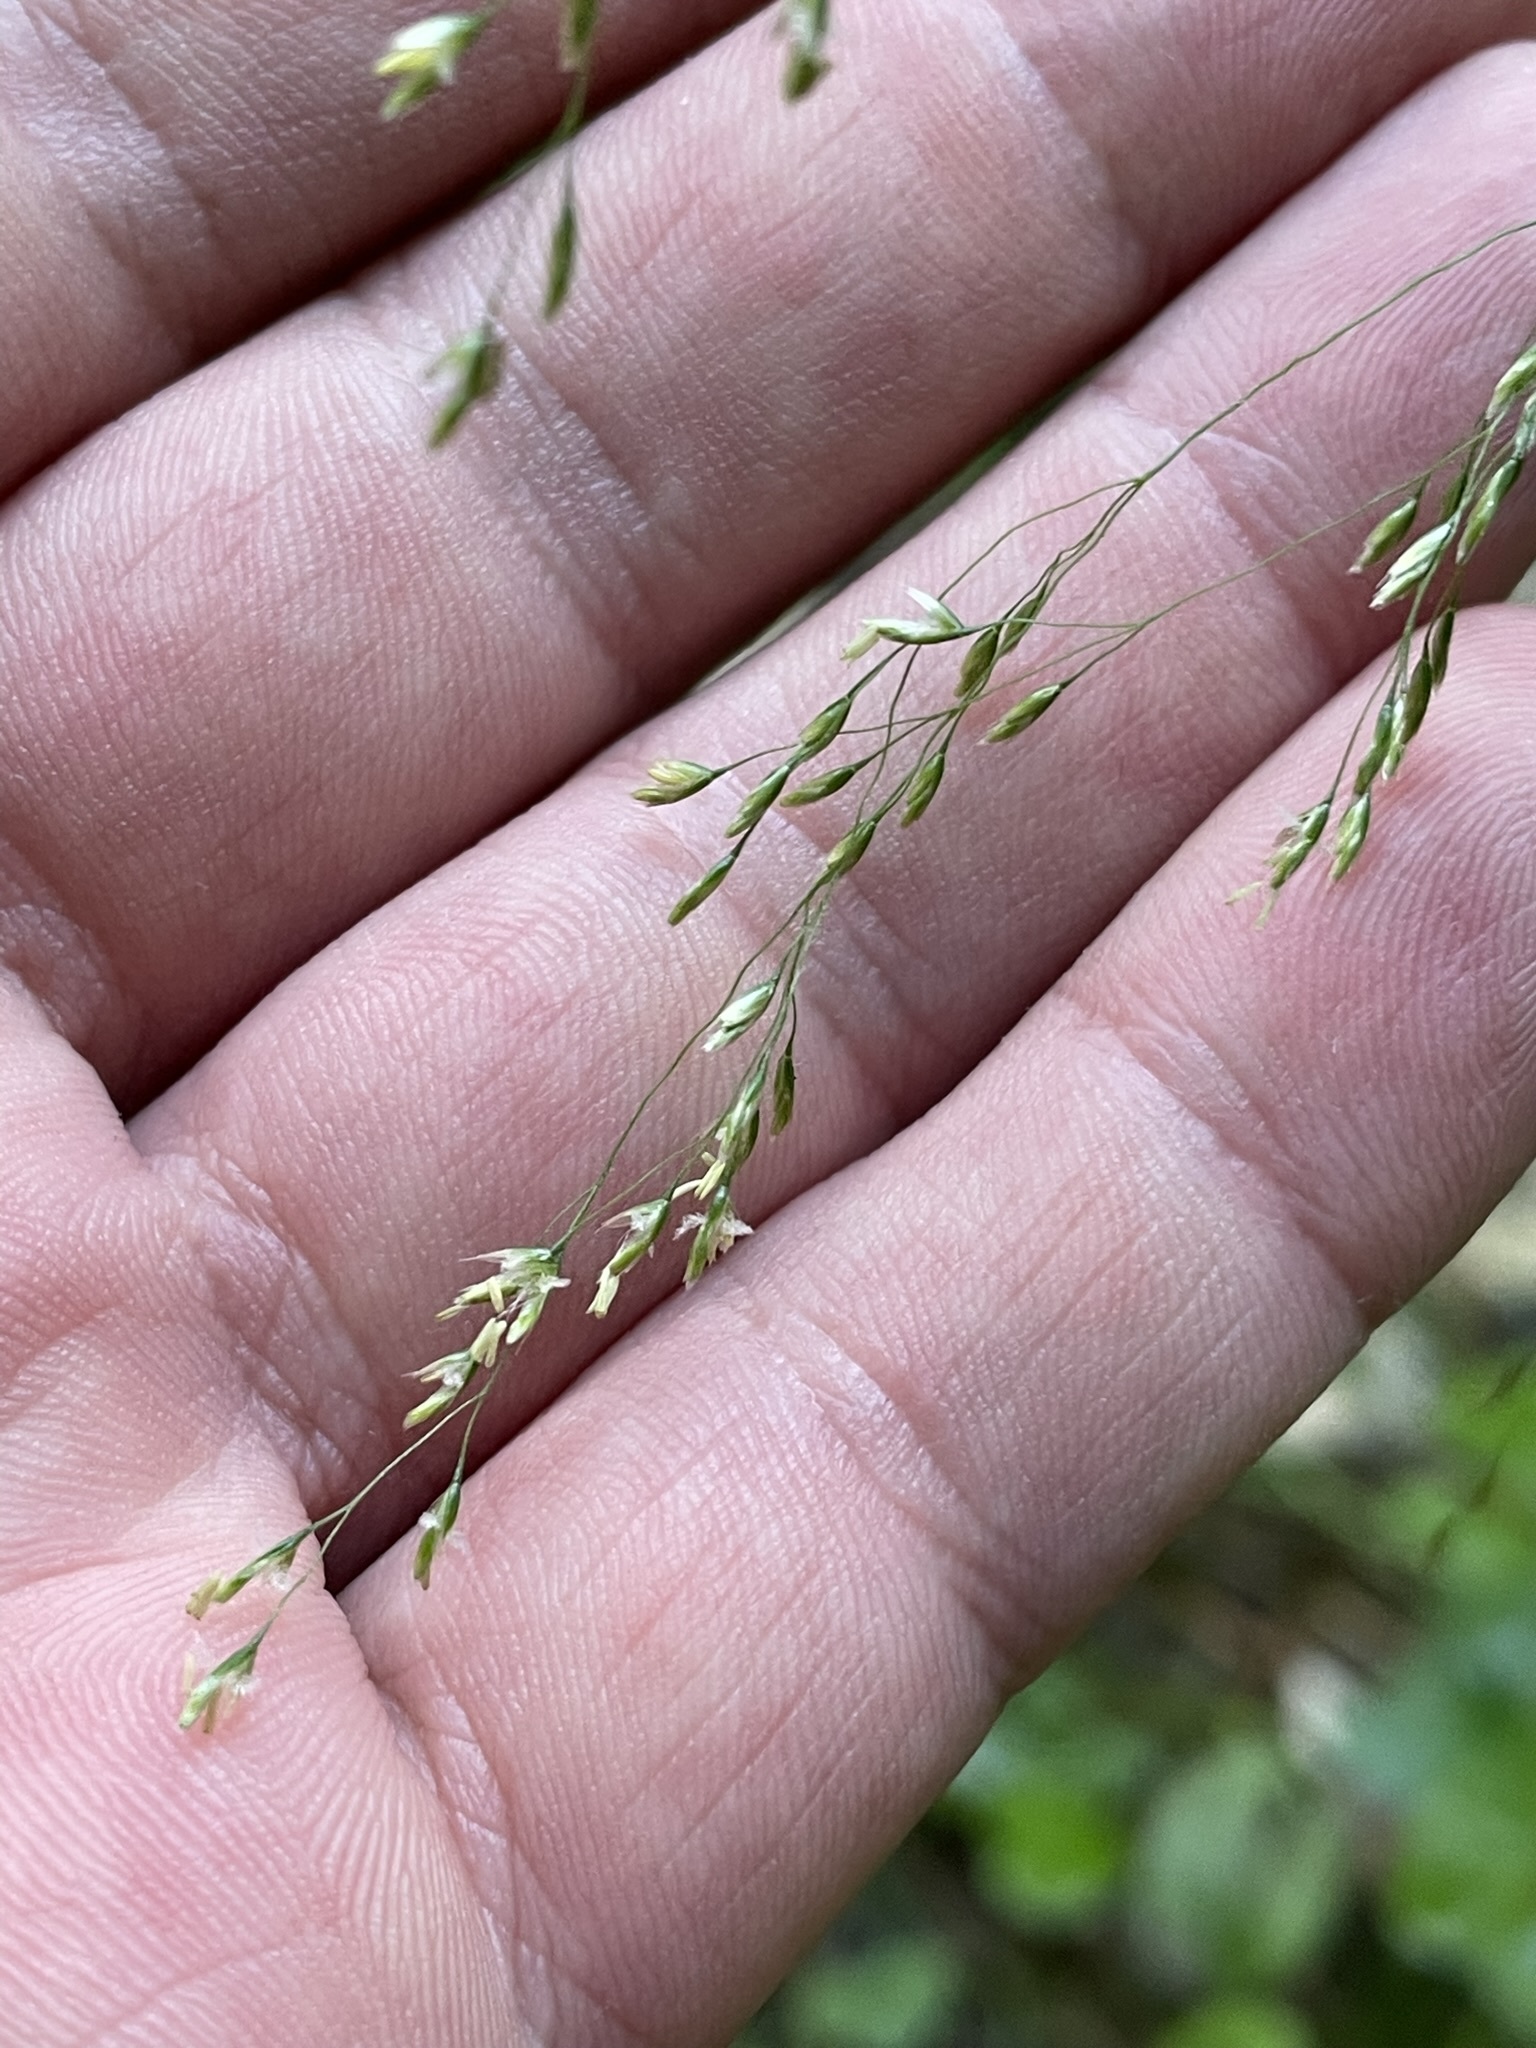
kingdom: Plantae
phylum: Tracheophyta
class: Liliopsida
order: Poales
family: Poaceae
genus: Deschampsia
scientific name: Deschampsia cespitosa
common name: Tufted hair-grass
